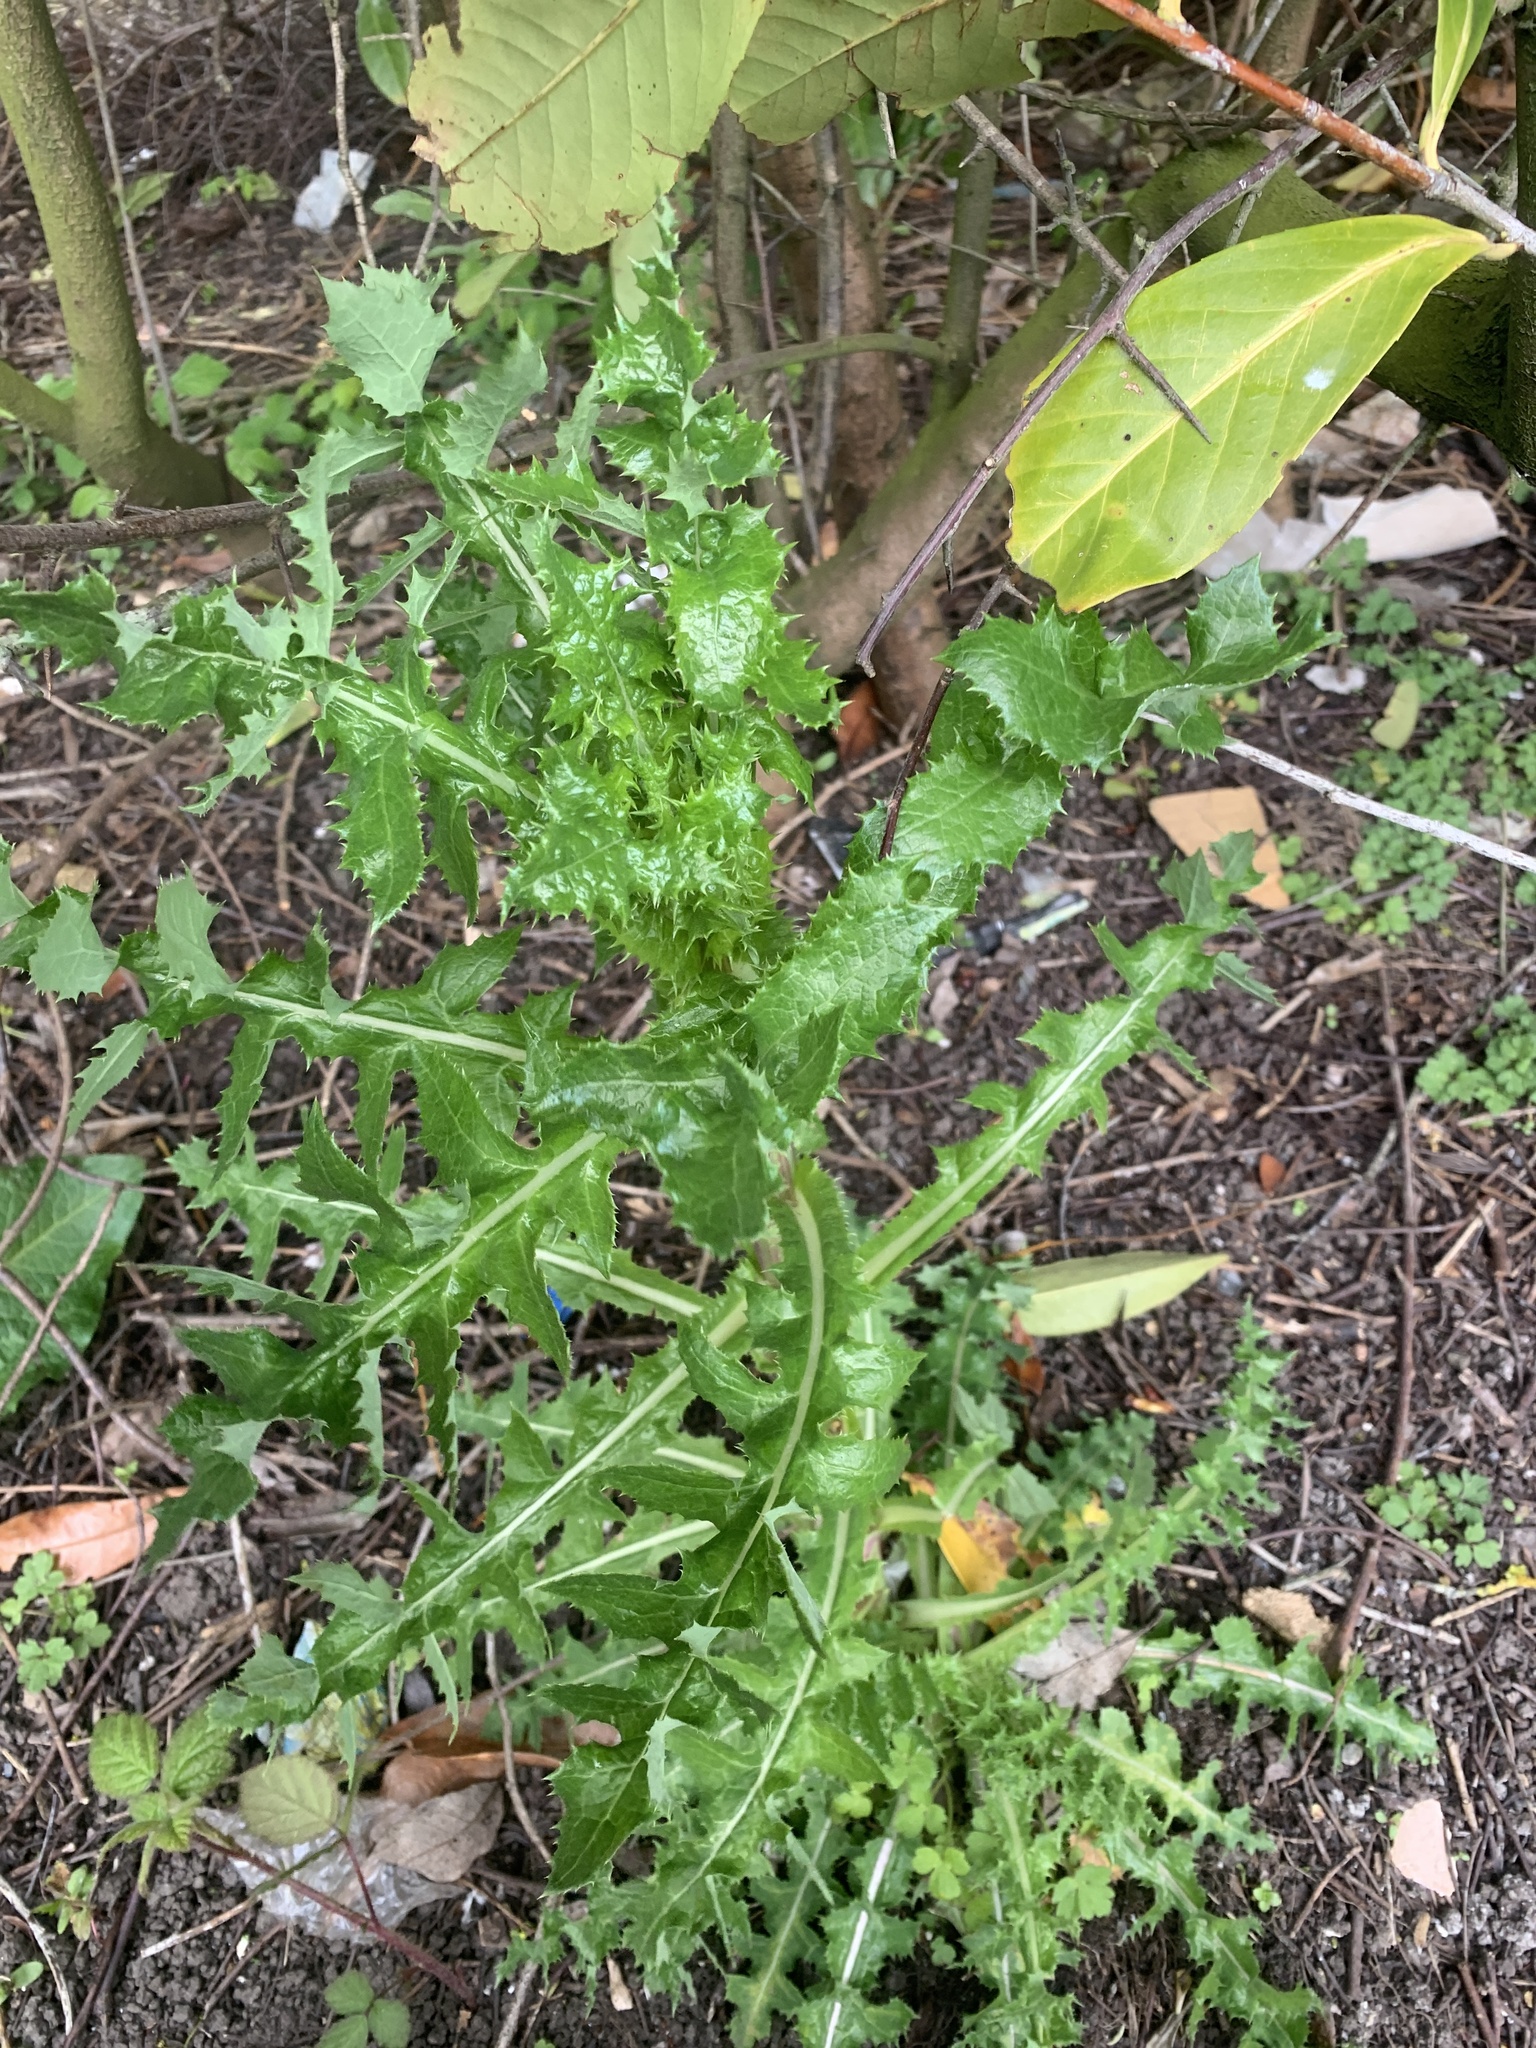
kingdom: Plantae
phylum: Tracheophyta
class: Magnoliopsida
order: Asterales
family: Asteraceae
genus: Sonchus
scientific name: Sonchus asper
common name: Prickly sow-thistle
